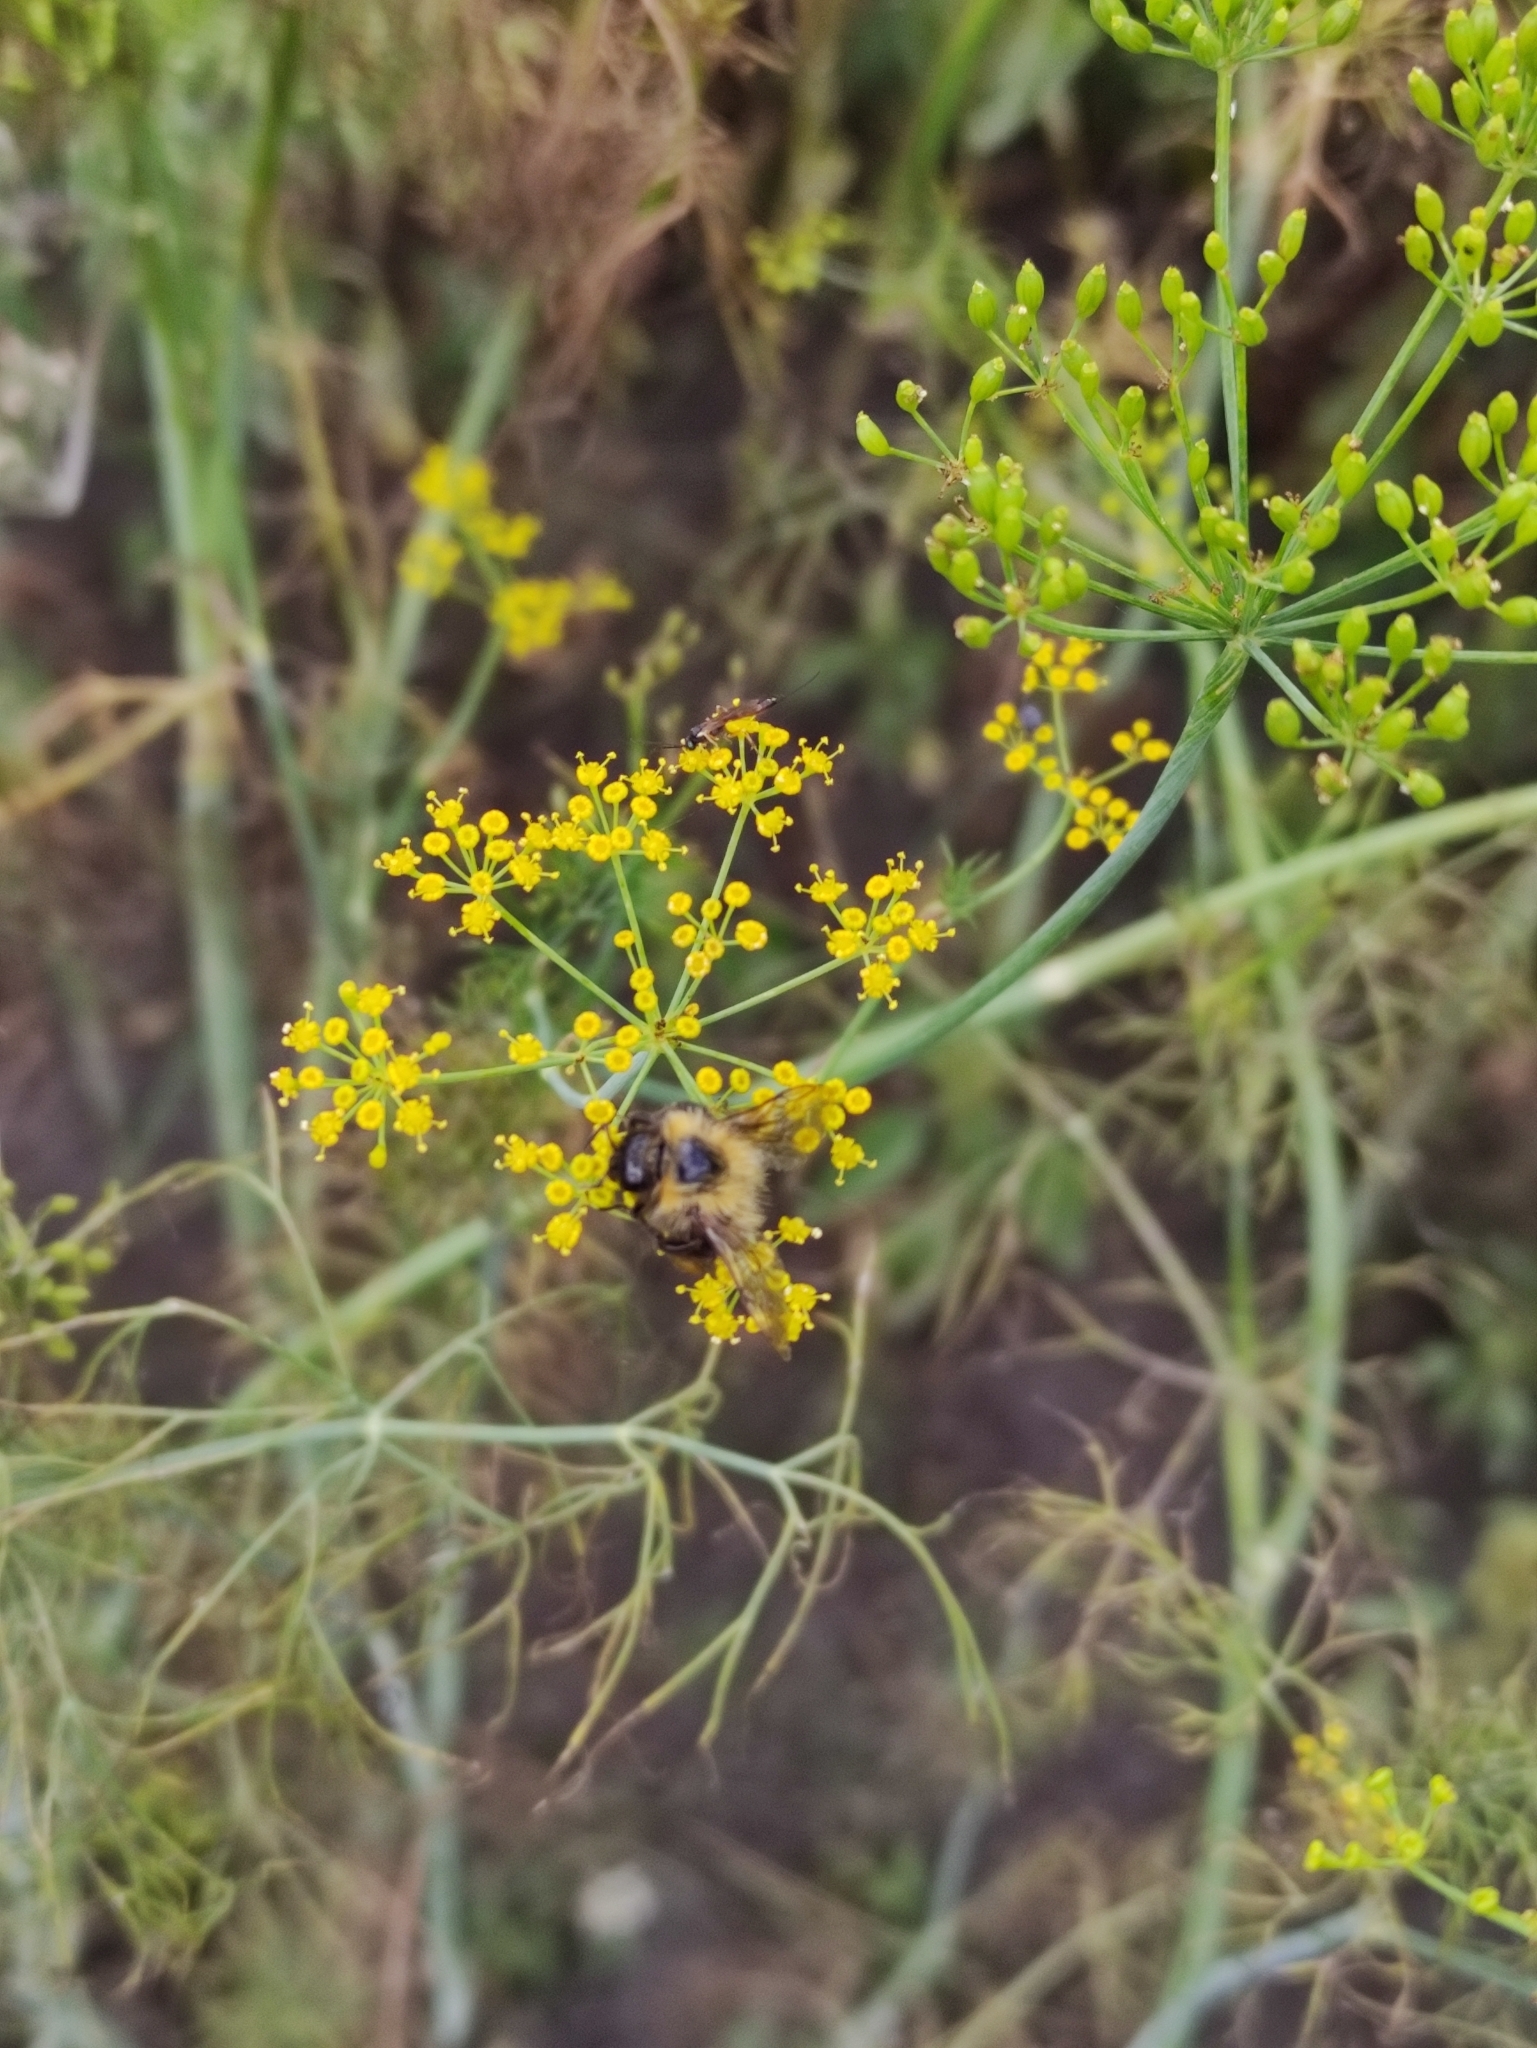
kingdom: Animalia
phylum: Arthropoda
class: Insecta
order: Hymenoptera
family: Apidae
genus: Bombus
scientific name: Bombus hypnorum
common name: New garden bumblebee
